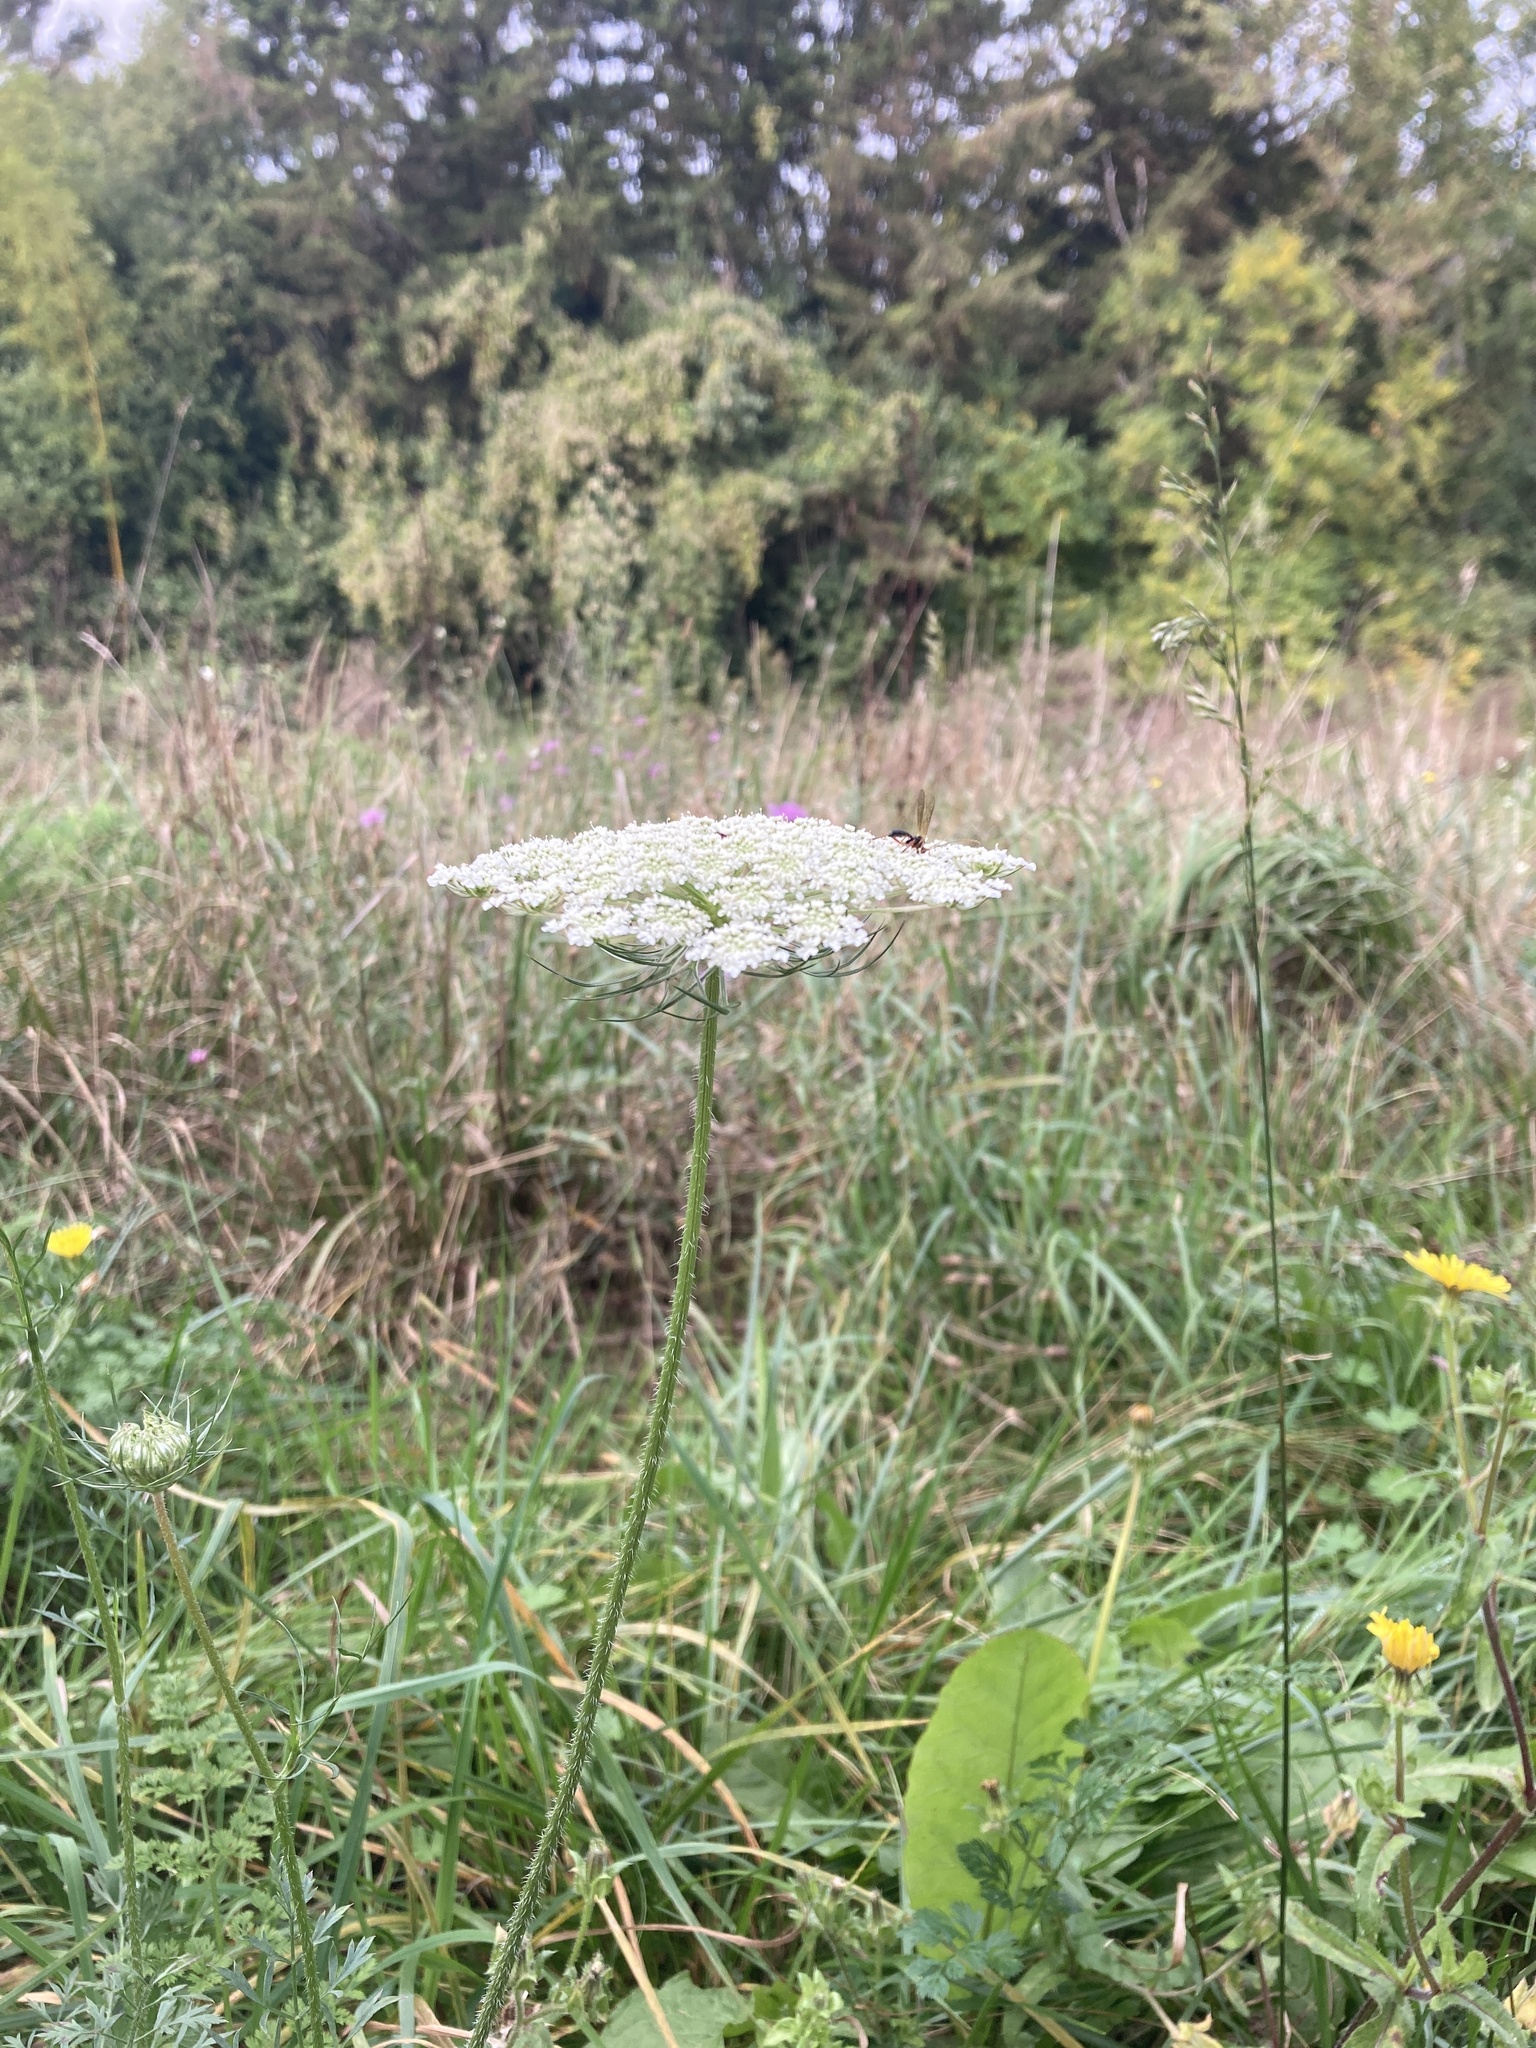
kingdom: Plantae
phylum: Tracheophyta
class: Magnoliopsida
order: Apiales
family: Apiaceae
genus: Daucus
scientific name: Daucus carota
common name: Wild carrot
